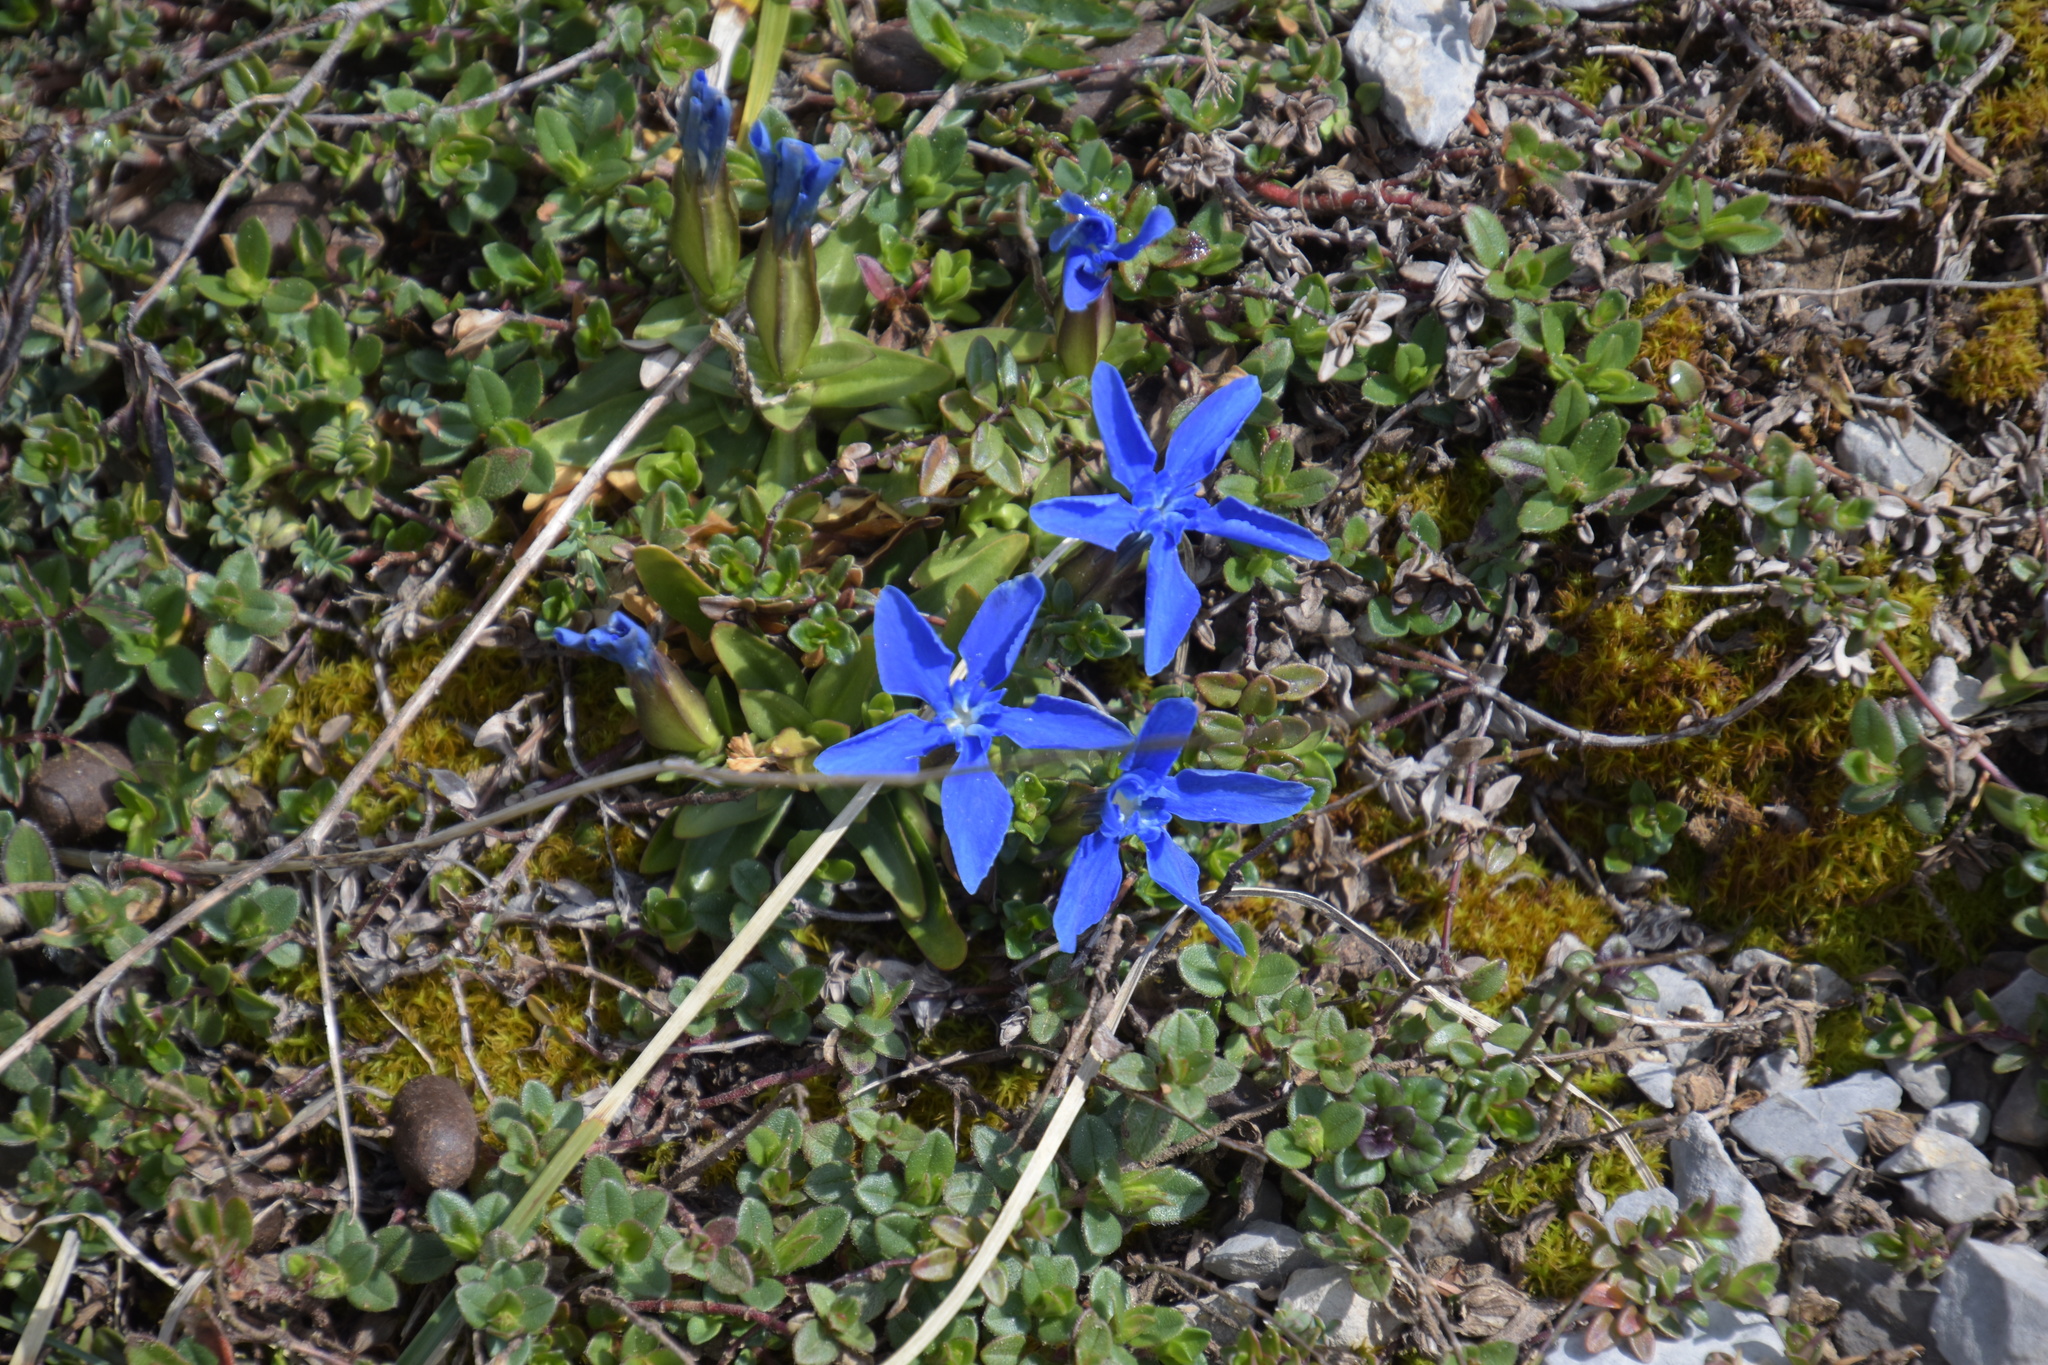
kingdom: Plantae
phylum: Tracheophyta
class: Magnoliopsida
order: Gentianales
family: Gentianaceae
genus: Gentiana
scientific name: Gentiana verna
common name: Spring gentian
